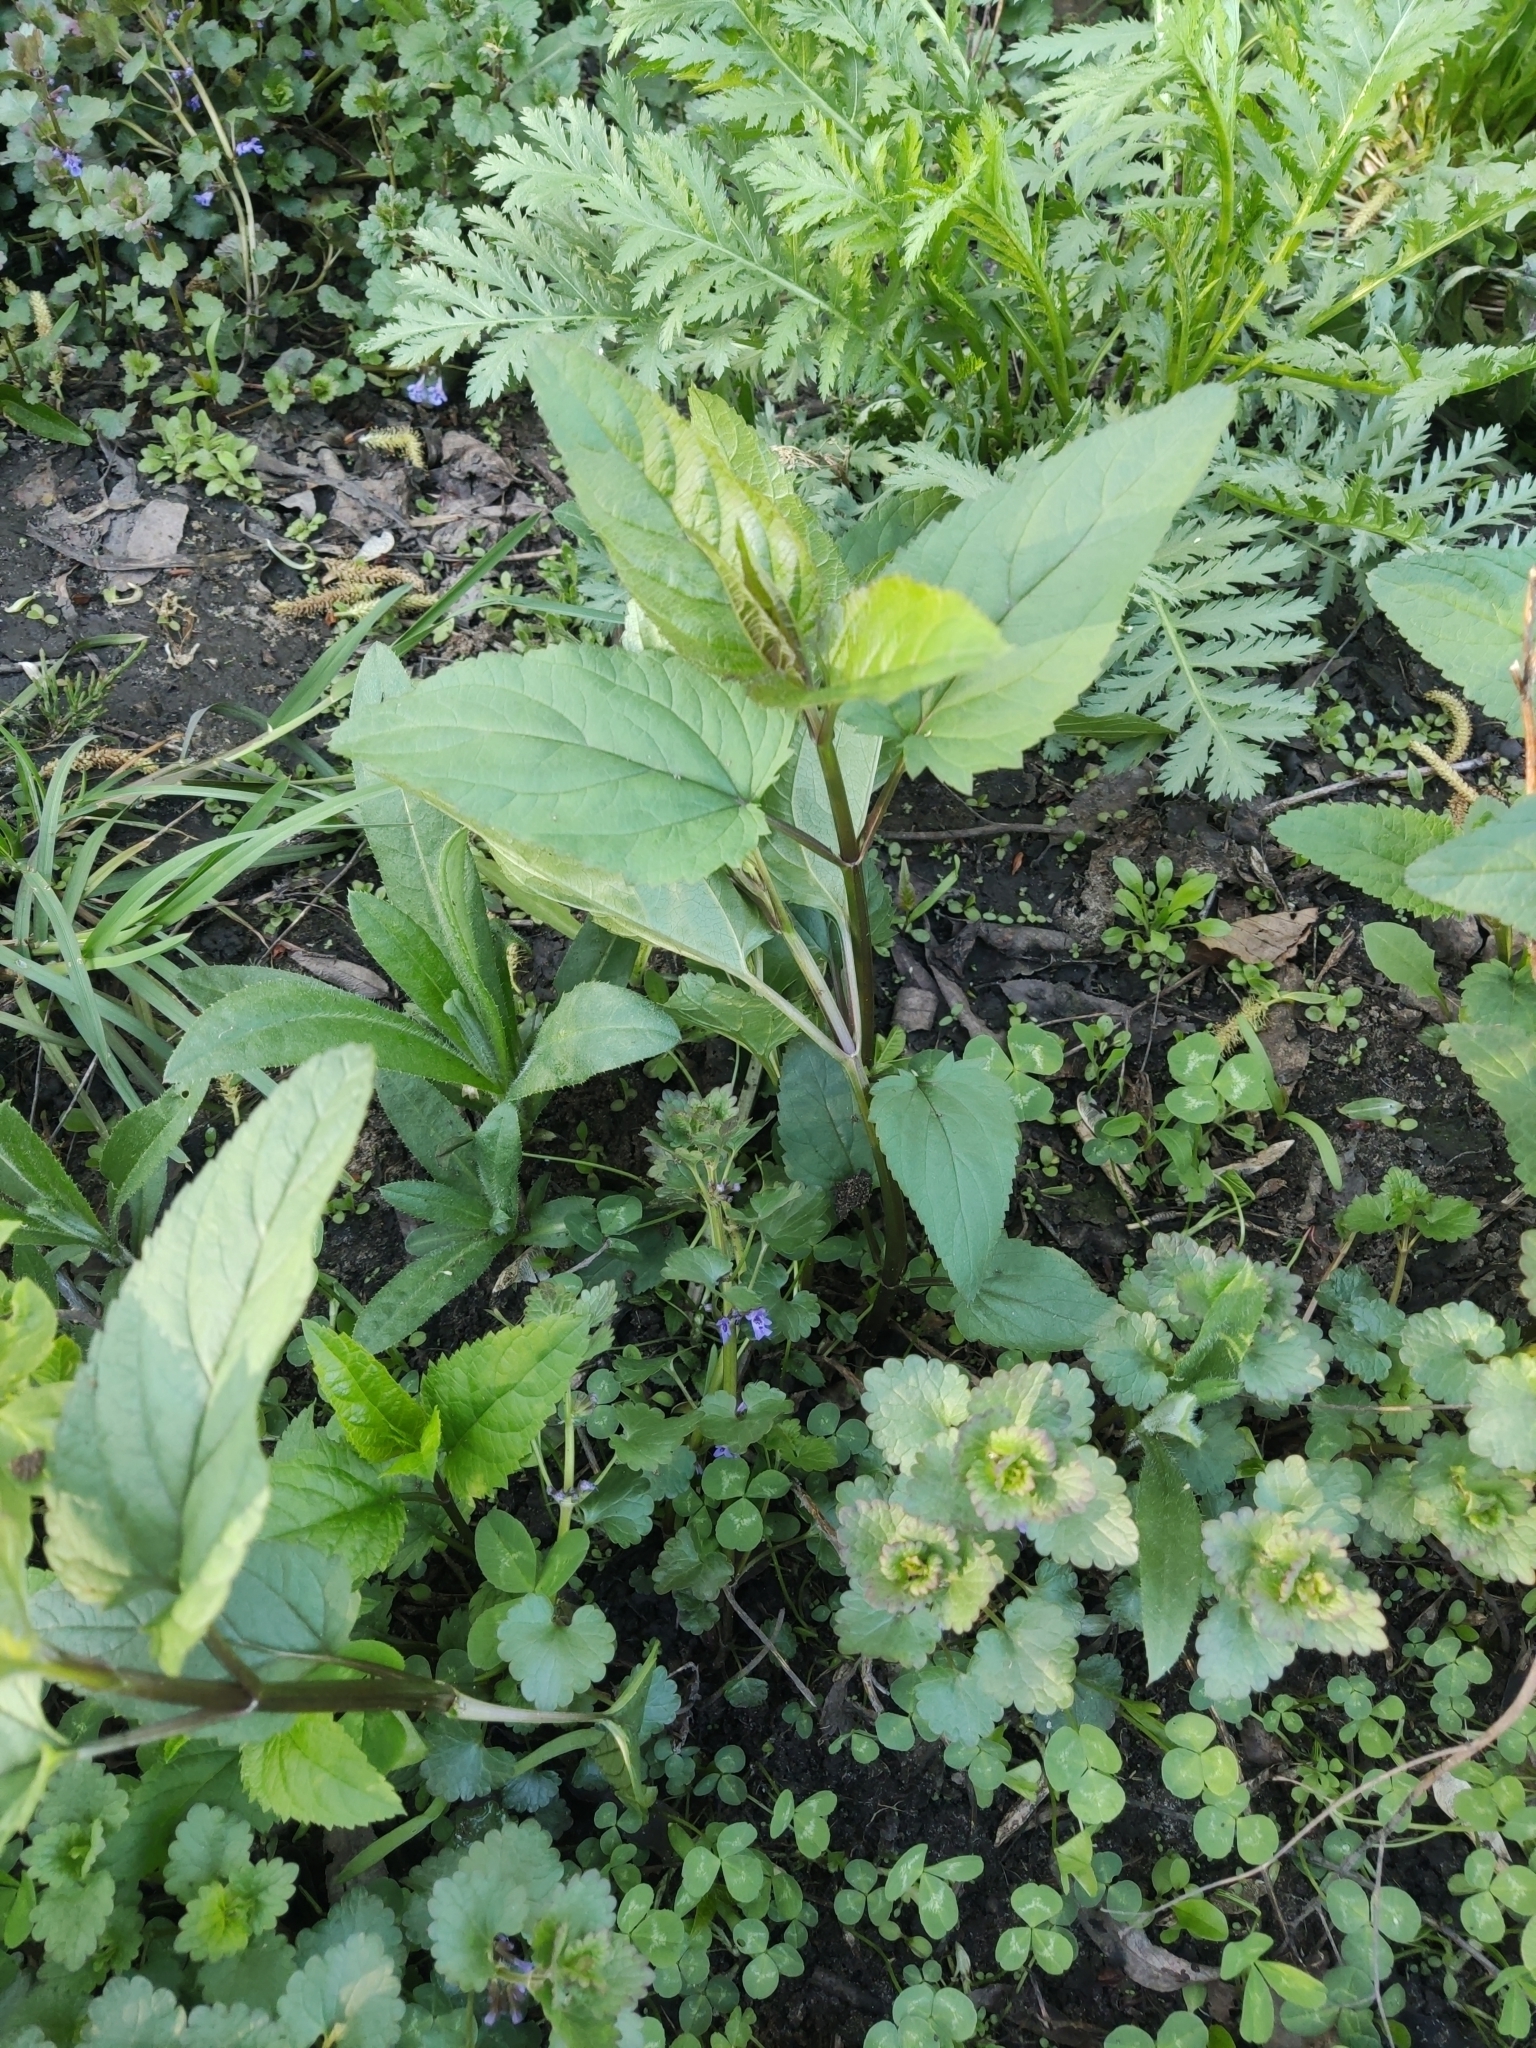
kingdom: Plantae
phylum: Tracheophyta
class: Magnoliopsida
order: Lamiales
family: Scrophulariaceae
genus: Scrophularia
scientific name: Scrophularia nodosa
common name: Common figwort
